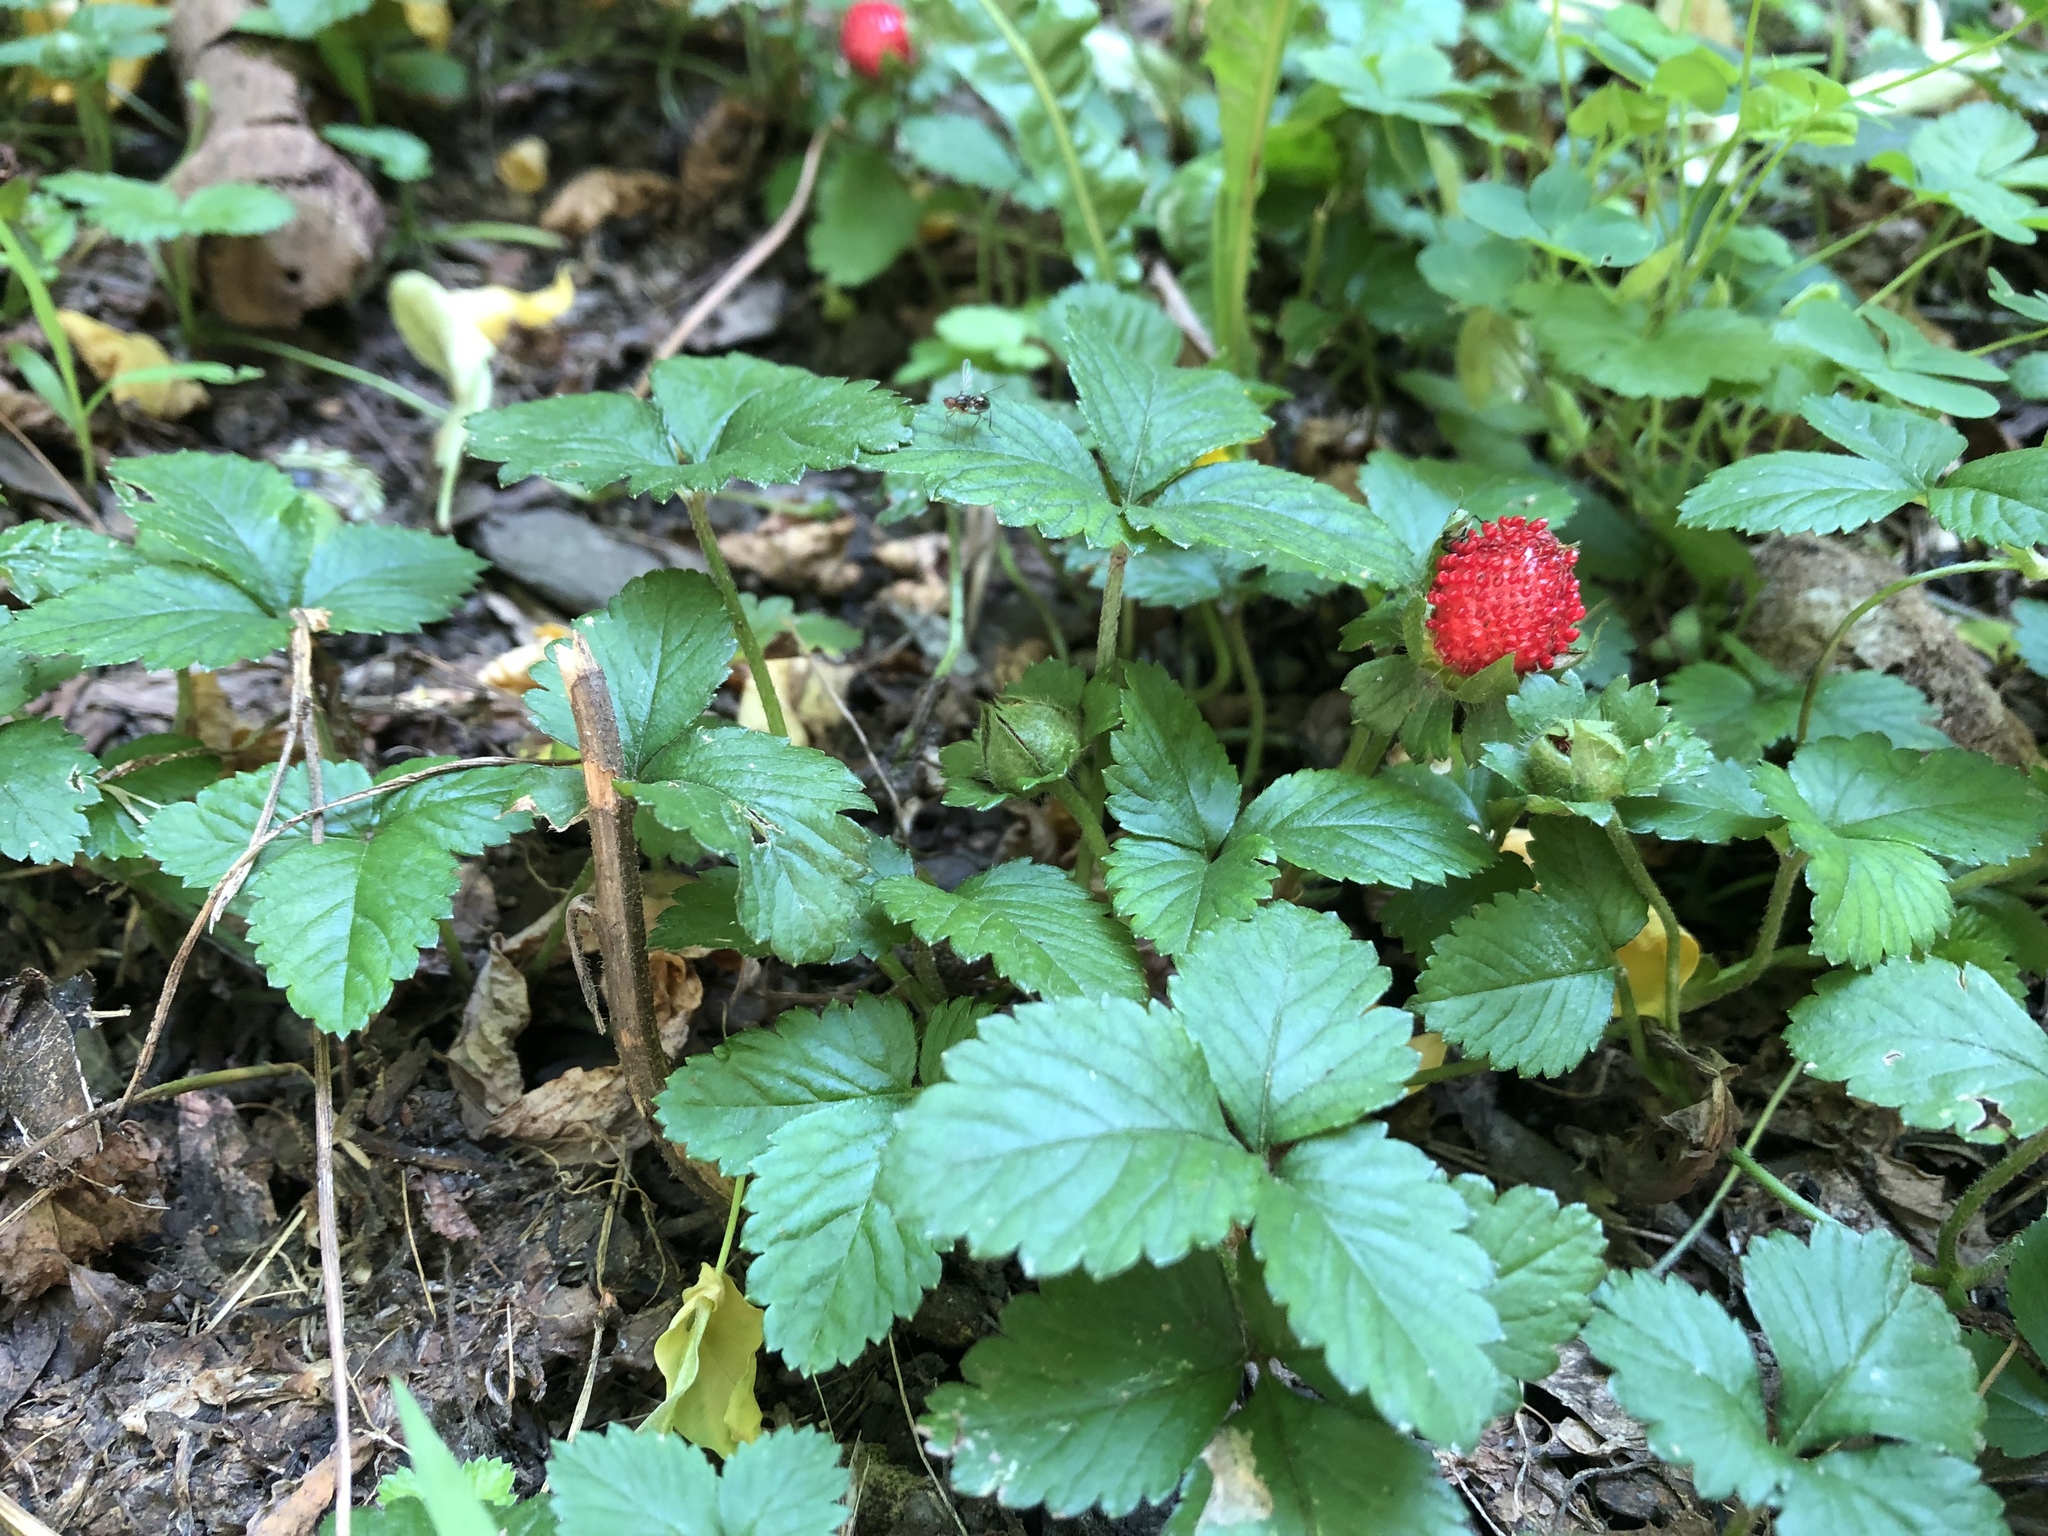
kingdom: Plantae
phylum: Tracheophyta
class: Magnoliopsida
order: Rosales
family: Rosaceae
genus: Potentilla
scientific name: Potentilla indica
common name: Yellow-flowered strawberry
